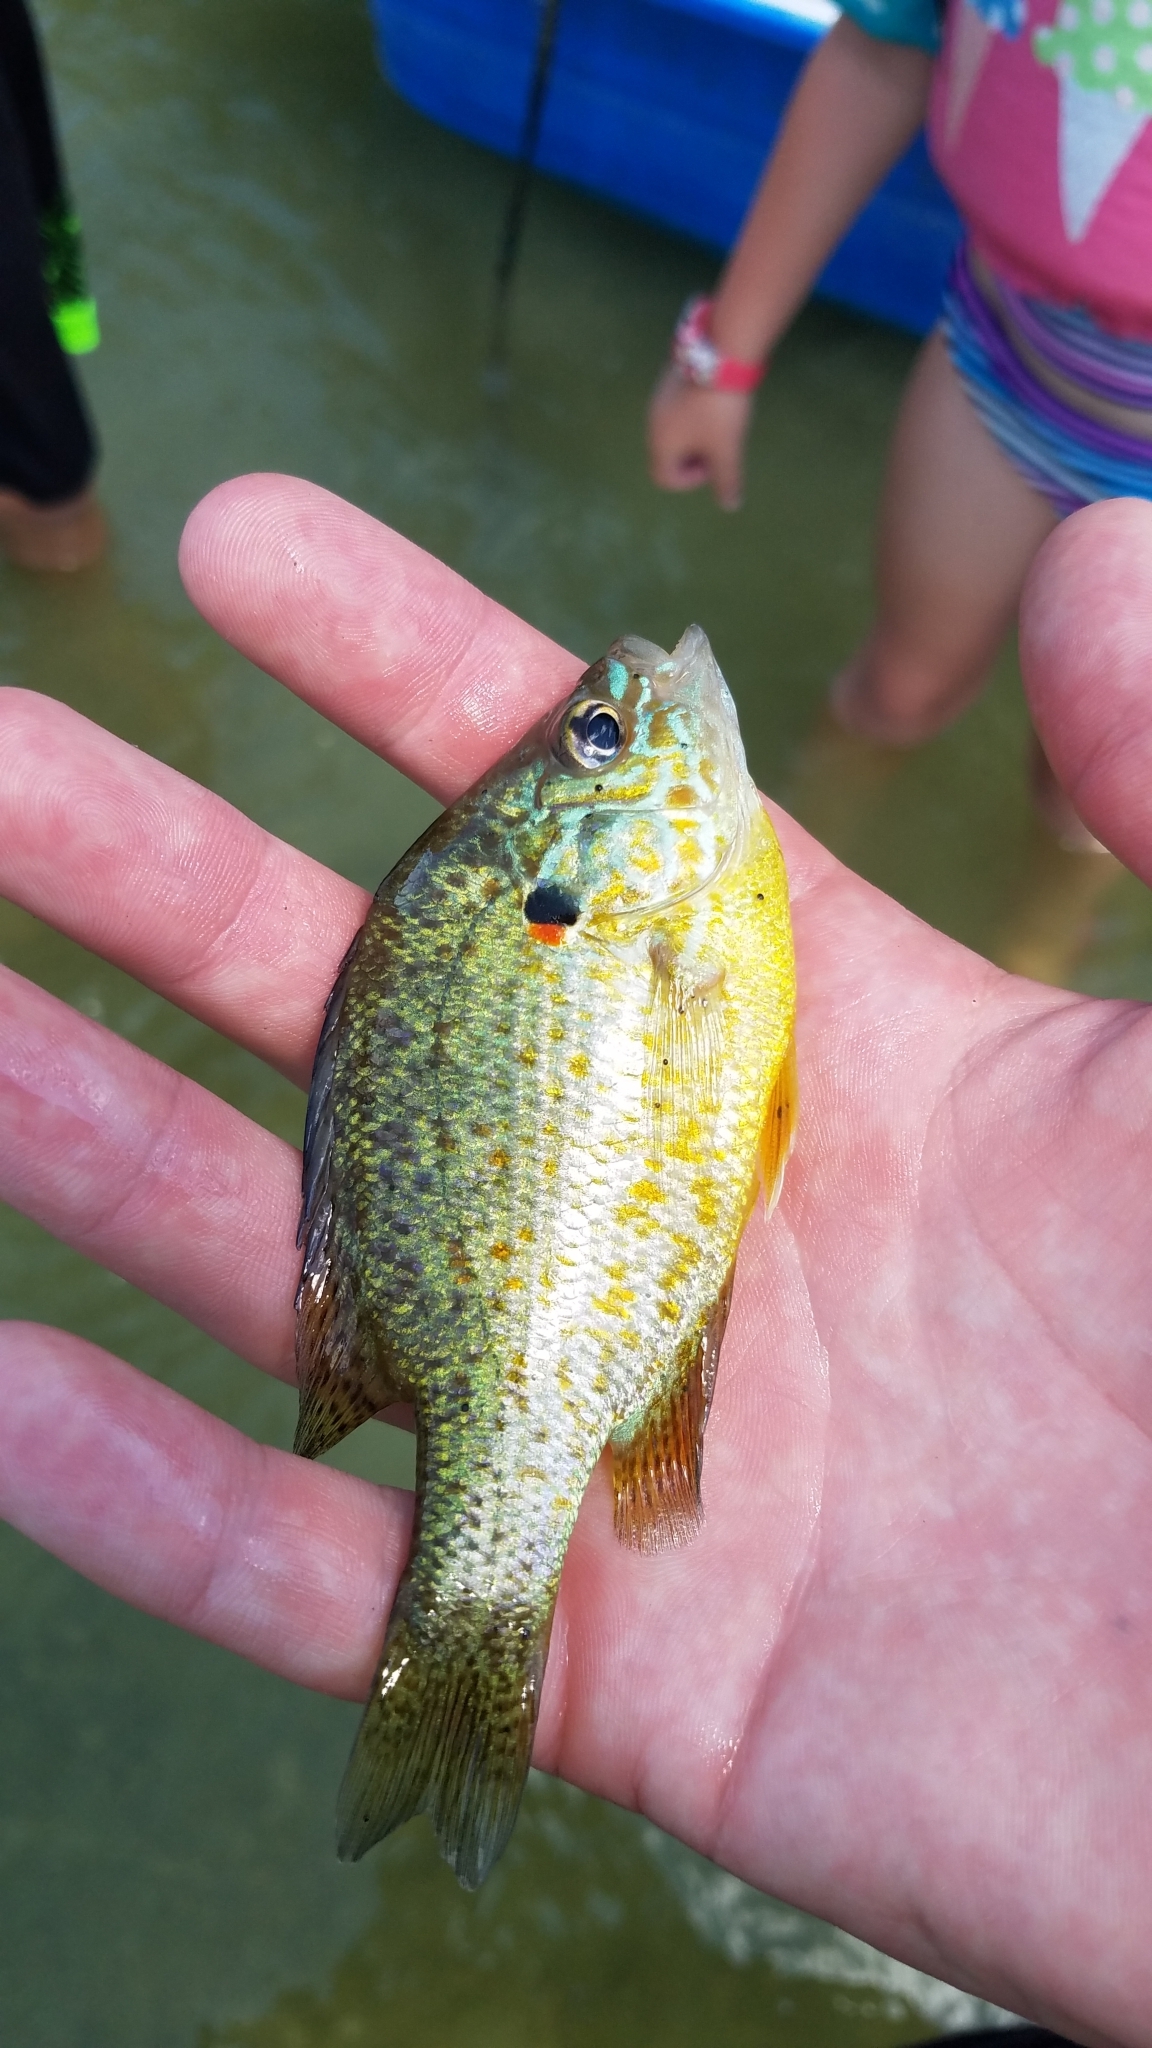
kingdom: Animalia
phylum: Chordata
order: Perciformes
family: Centrarchidae
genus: Lepomis
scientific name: Lepomis gibbosus
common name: Pumpkinseed
